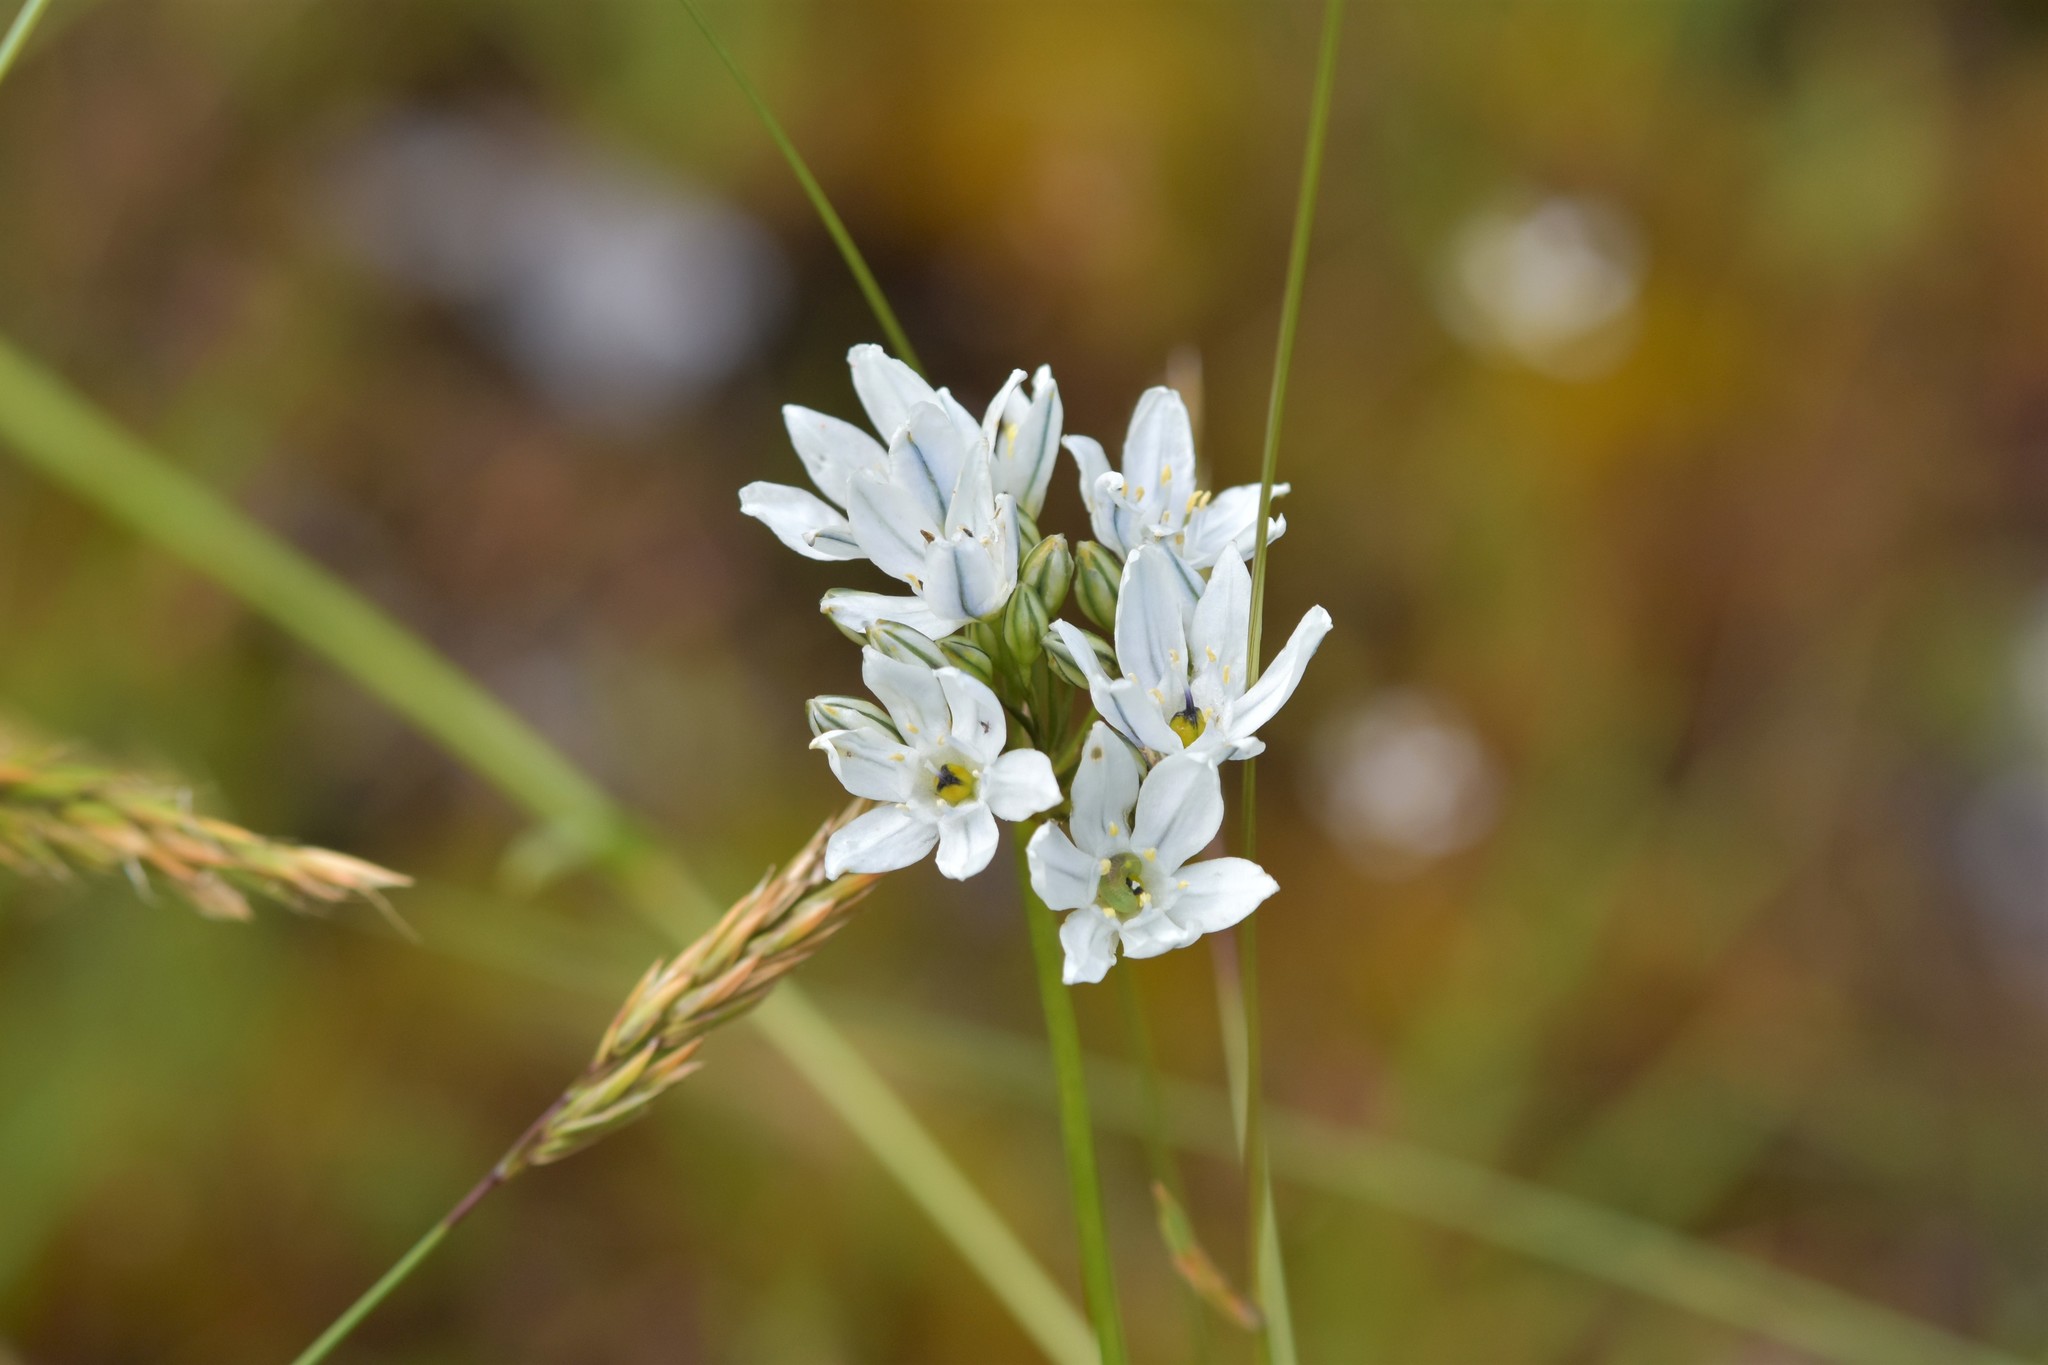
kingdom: Plantae
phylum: Tracheophyta
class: Liliopsida
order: Asparagales
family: Asparagaceae
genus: Triteleia
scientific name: Triteleia hyacinthina
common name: White brodiaea
